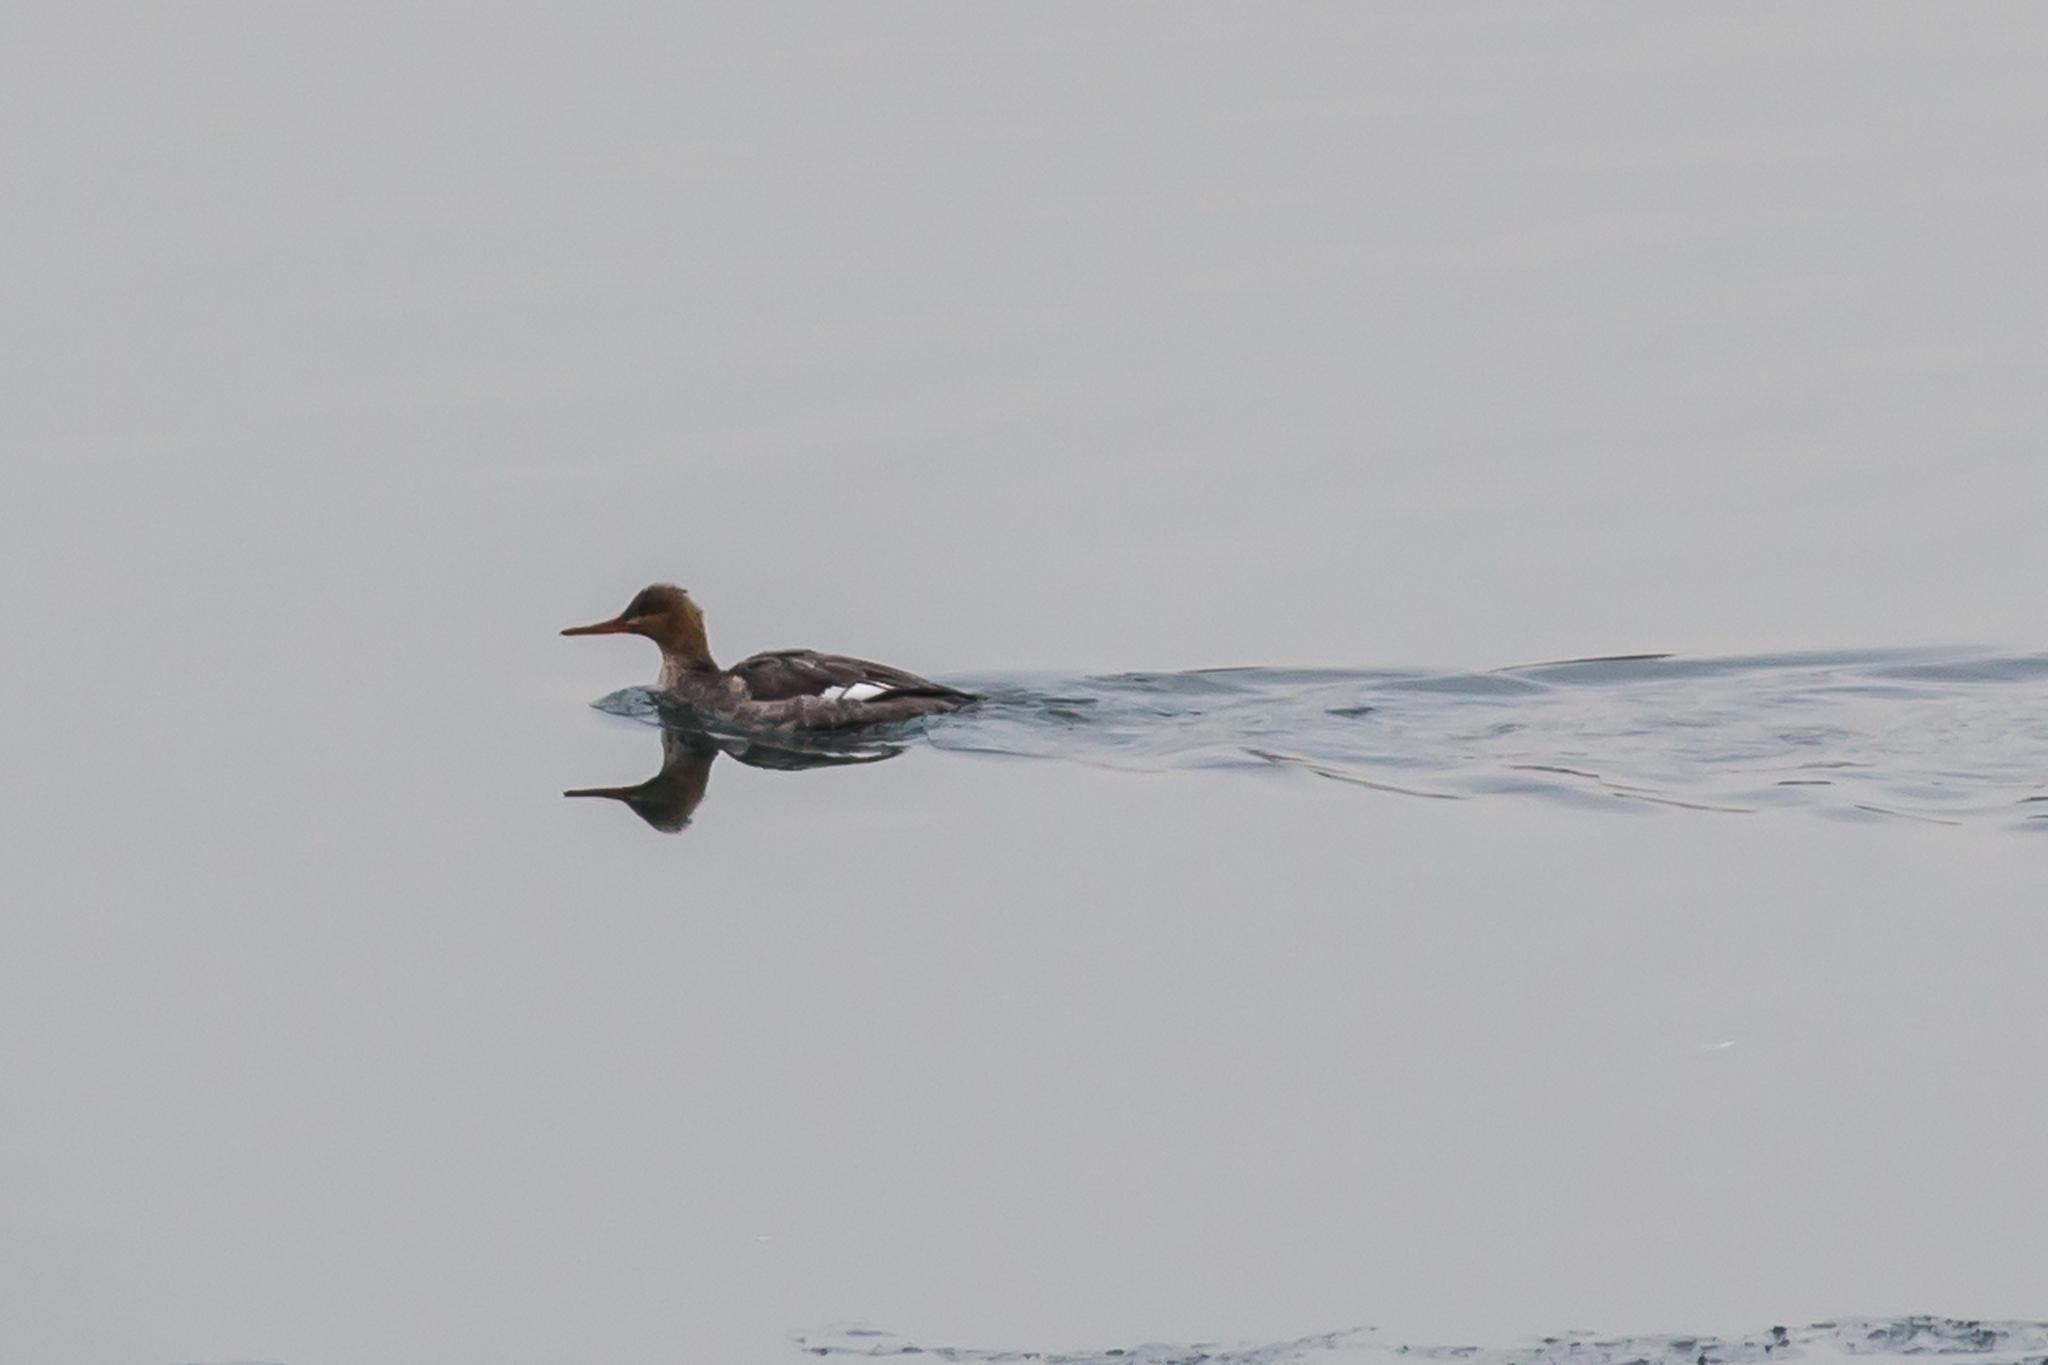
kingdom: Animalia
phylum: Chordata
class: Aves
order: Anseriformes
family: Anatidae
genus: Mergus
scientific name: Mergus serrator
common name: Red-breasted merganser
